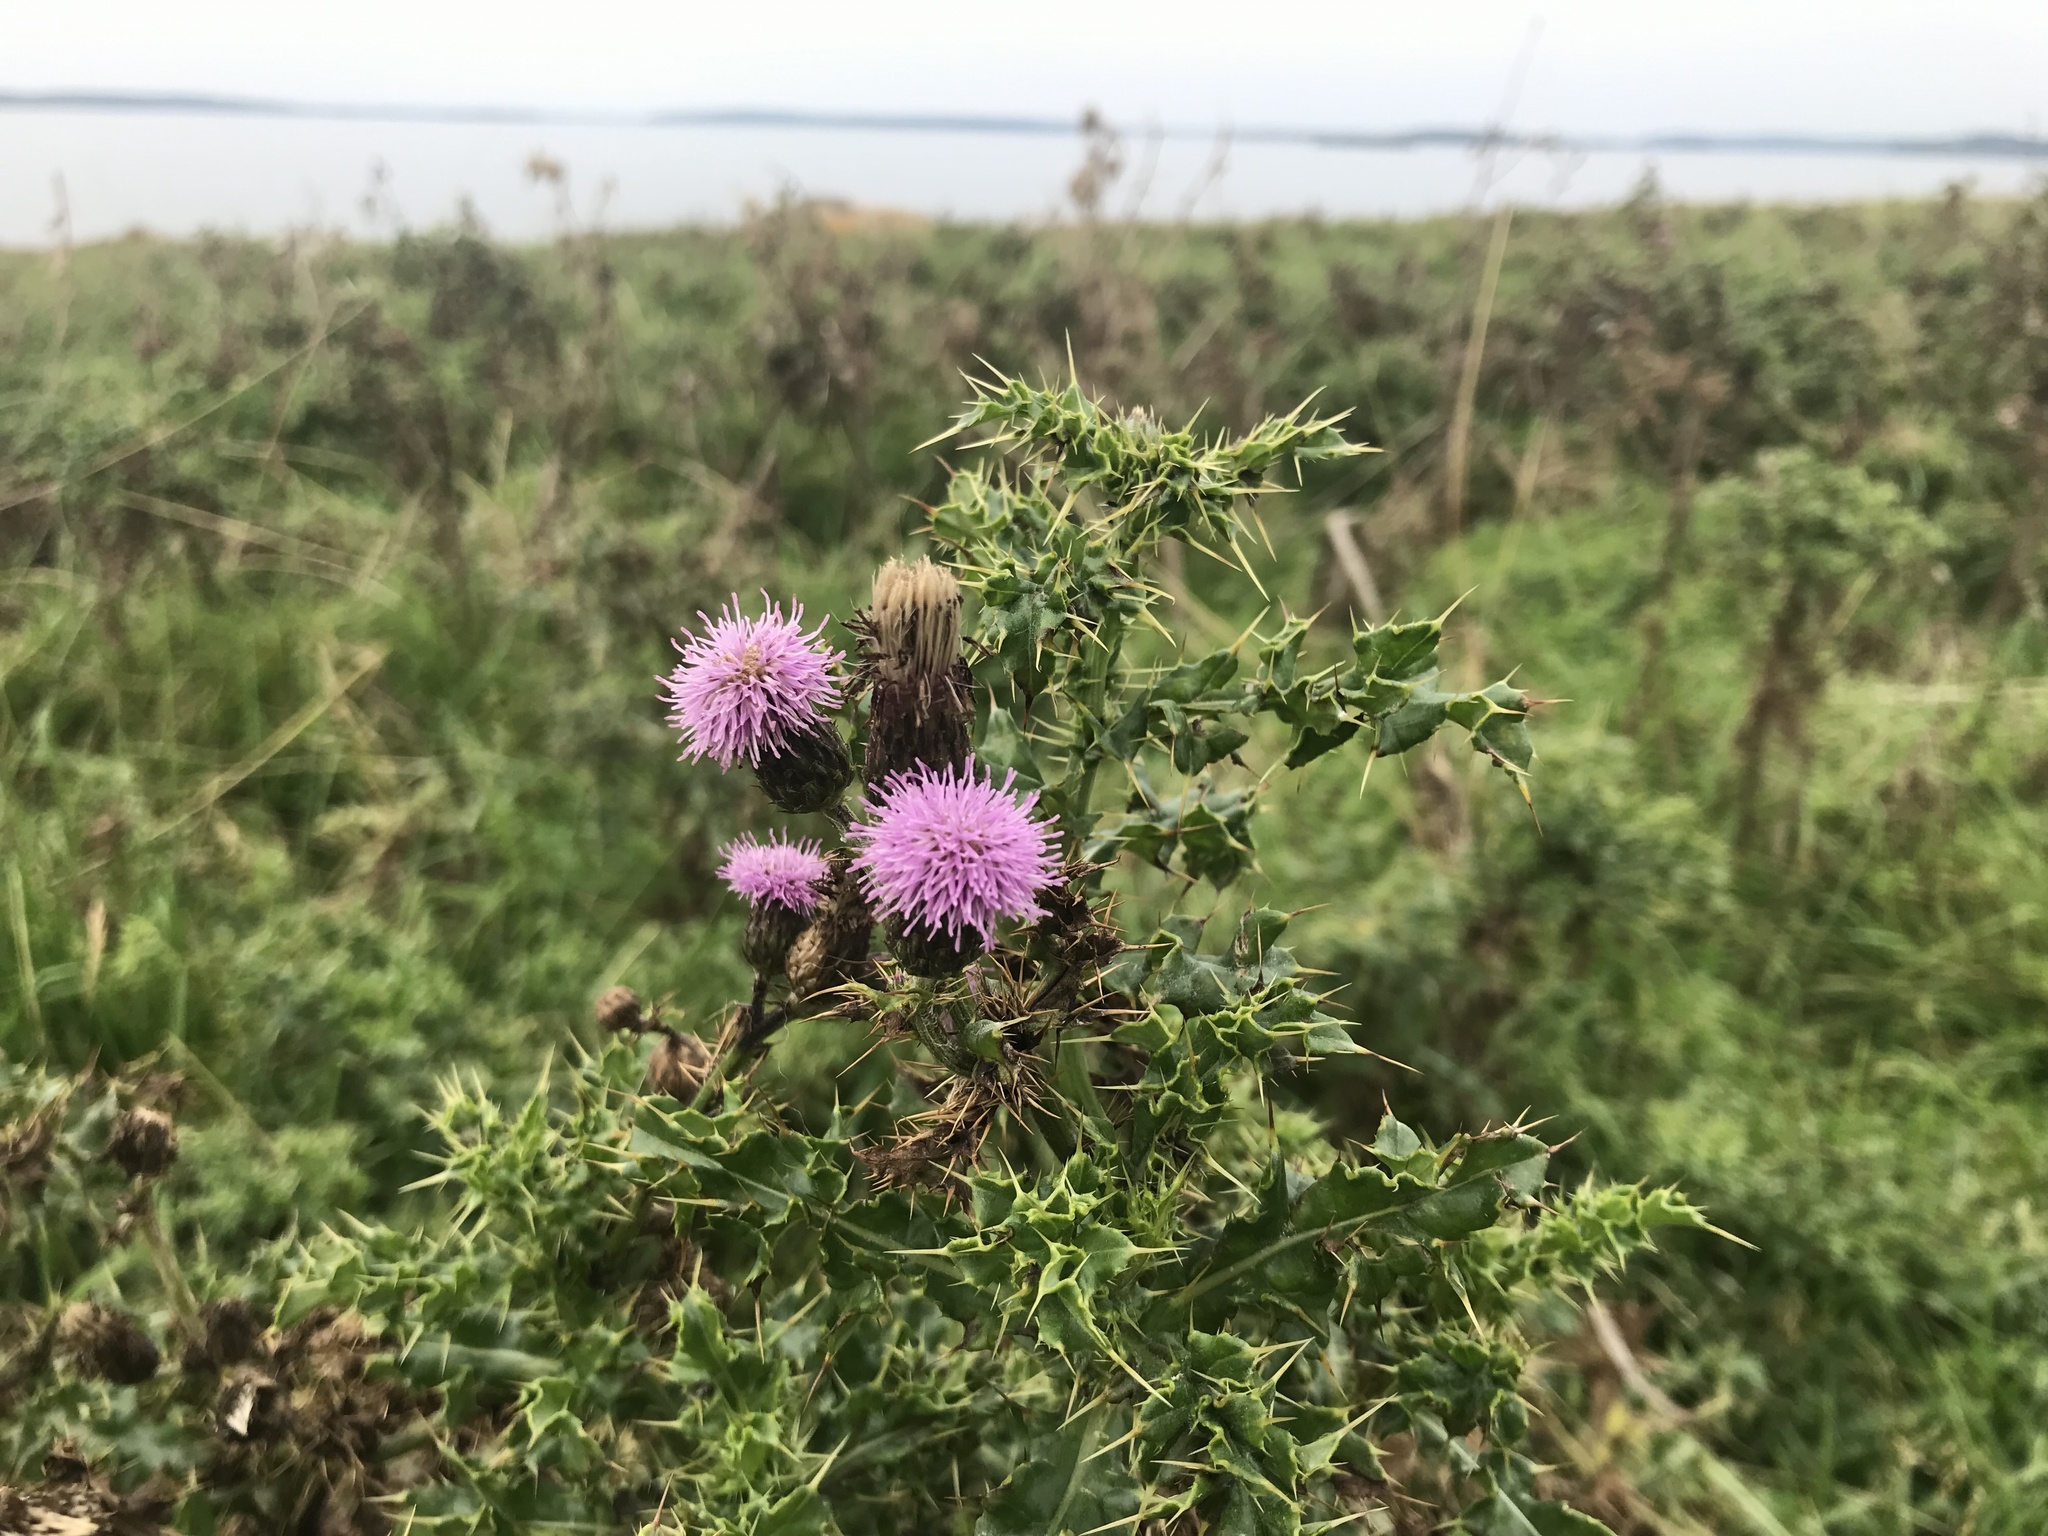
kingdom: Plantae
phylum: Tracheophyta
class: Magnoliopsida
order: Asterales
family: Asteraceae
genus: Cirsium
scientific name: Cirsium arvense
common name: Creeping thistle
